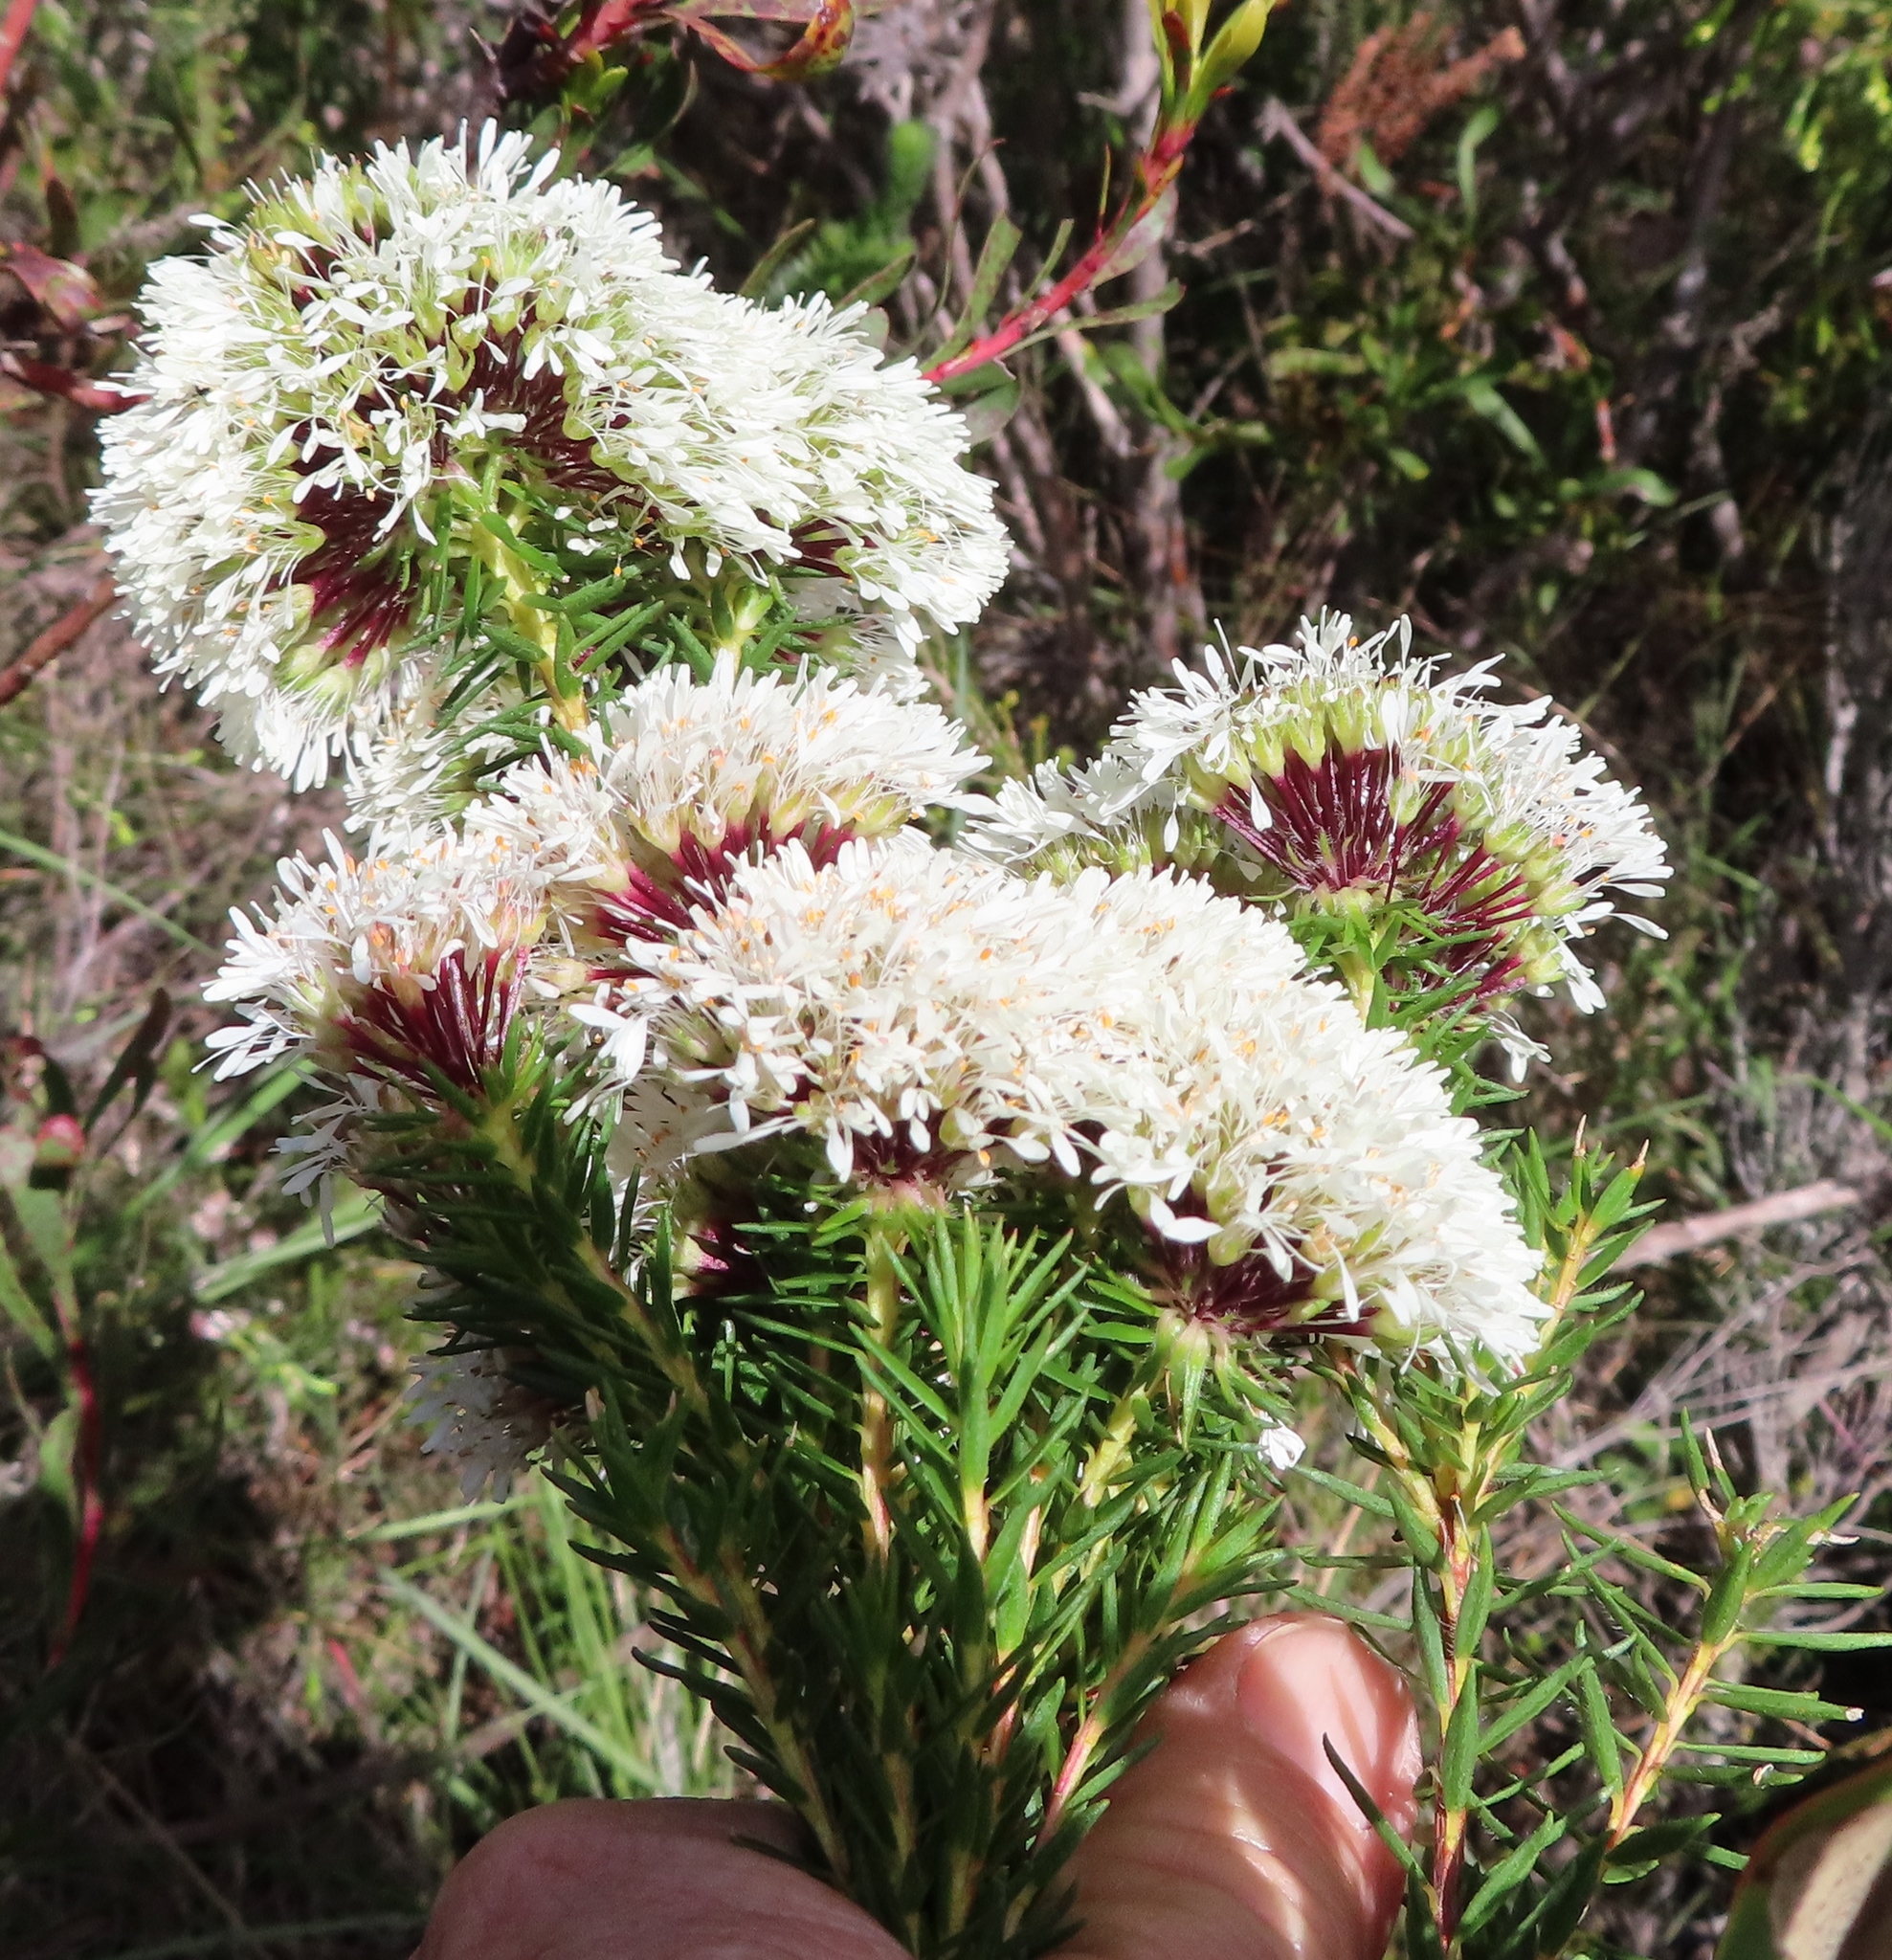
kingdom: Plantae
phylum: Tracheophyta
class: Magnoliopsida
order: Sapindales
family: Rutaceae
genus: Agathosma
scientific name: Agathosma bifida
